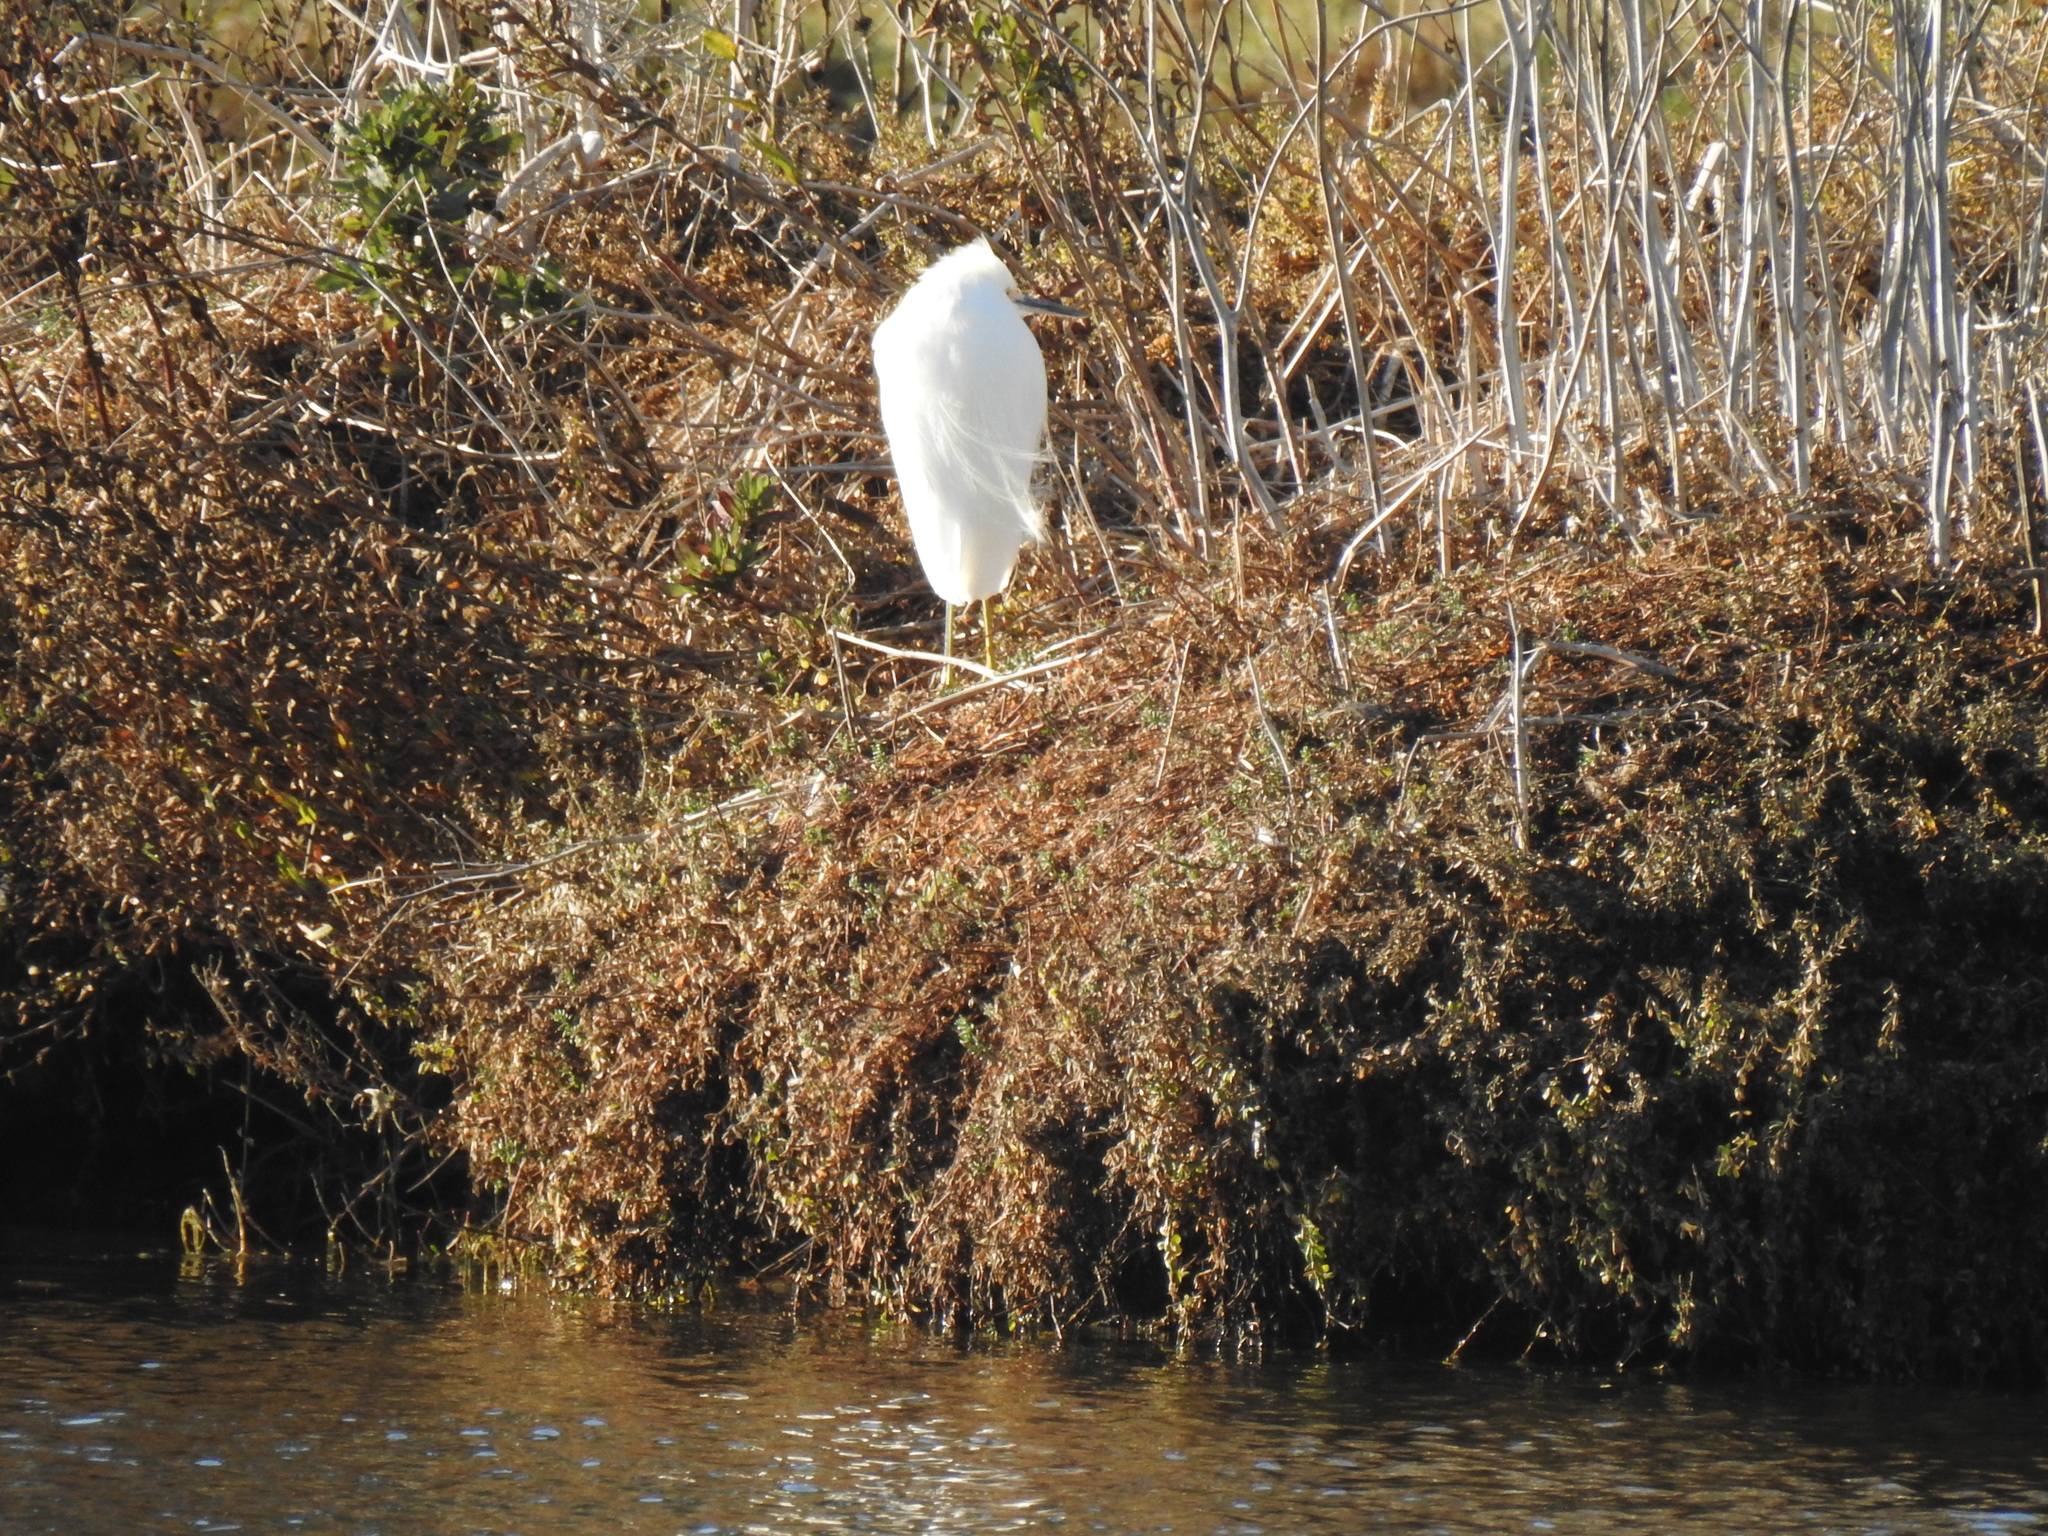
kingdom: Animalia
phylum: Chordata
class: Aves
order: Pelecaniformes
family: Ardeidae
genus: Egretta
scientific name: Egretta thula
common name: Snowy egret
